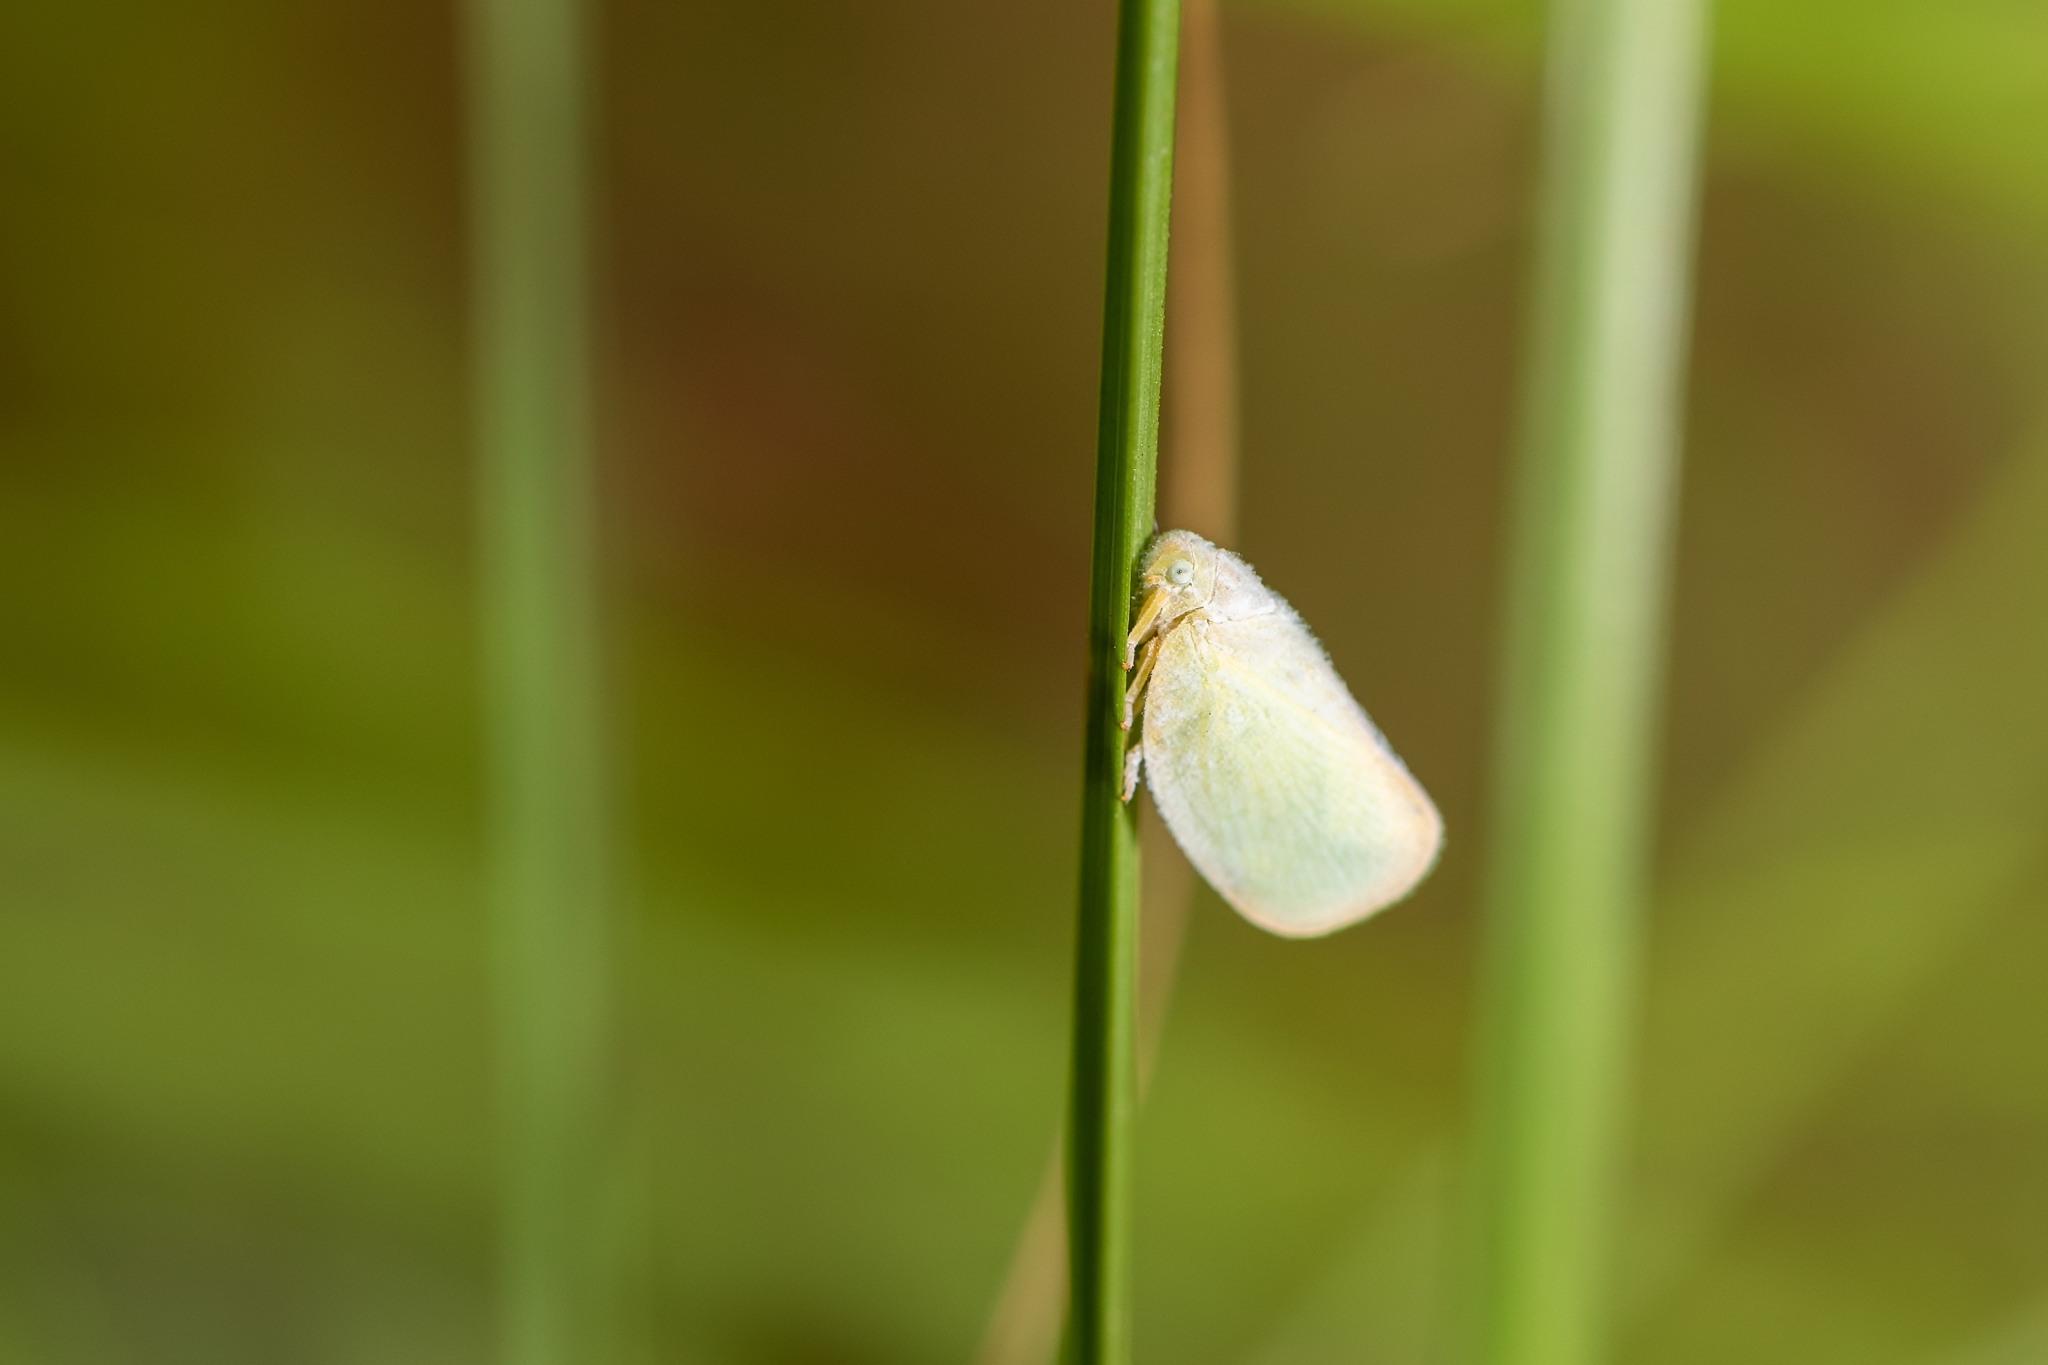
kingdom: Animalia
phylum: Arthropoda
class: Insecta
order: Hemiptera
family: Flatidae
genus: Ormenoides
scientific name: Ormenoides venusta
